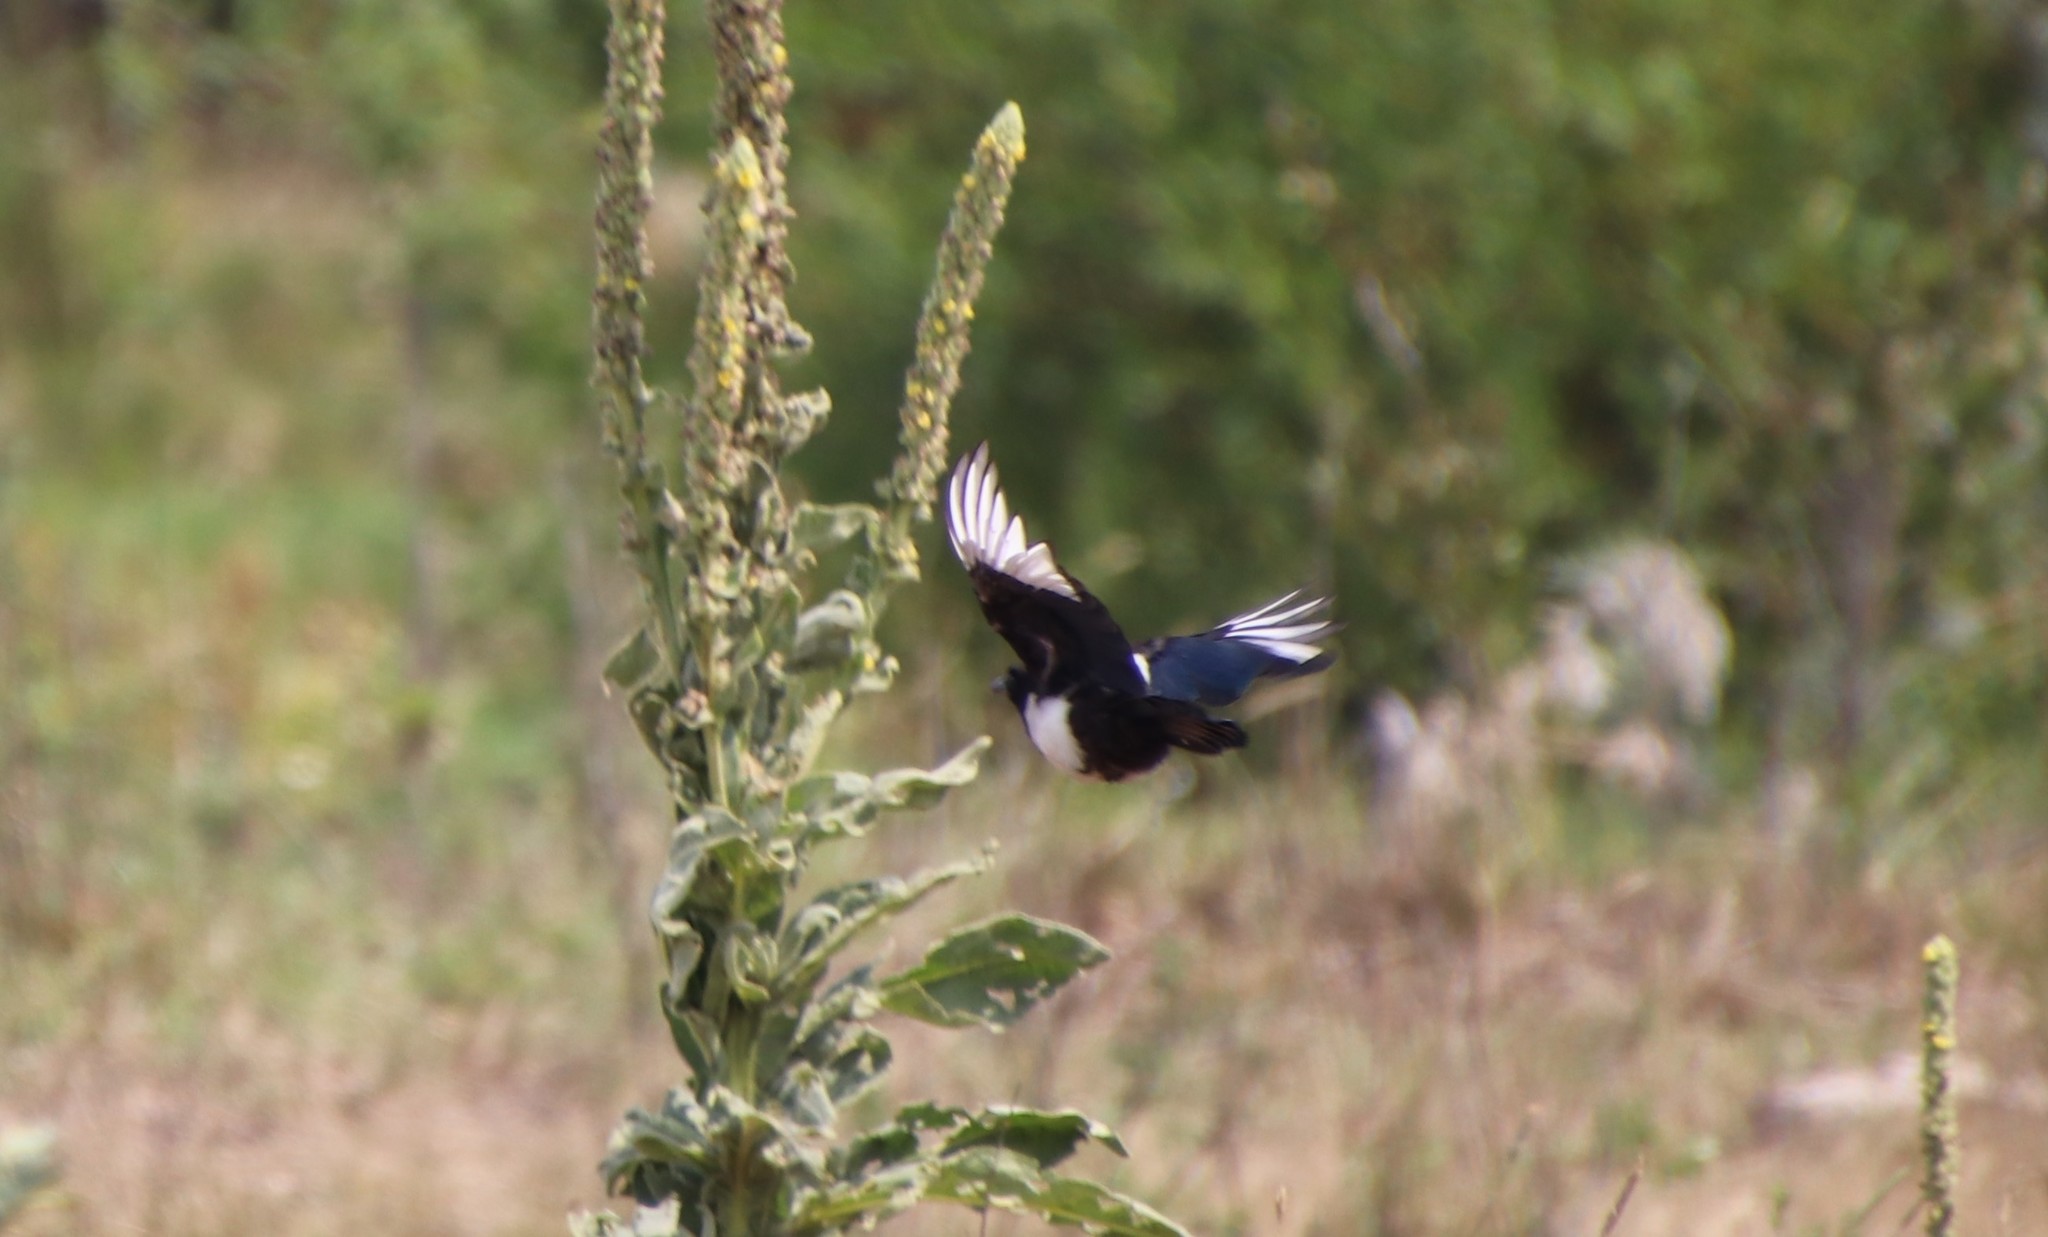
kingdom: Animalia
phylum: Chordata
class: Aves
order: Passeriformes
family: Corvidae
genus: Pica
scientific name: Pica hudsonia
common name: Black-billed magpie
